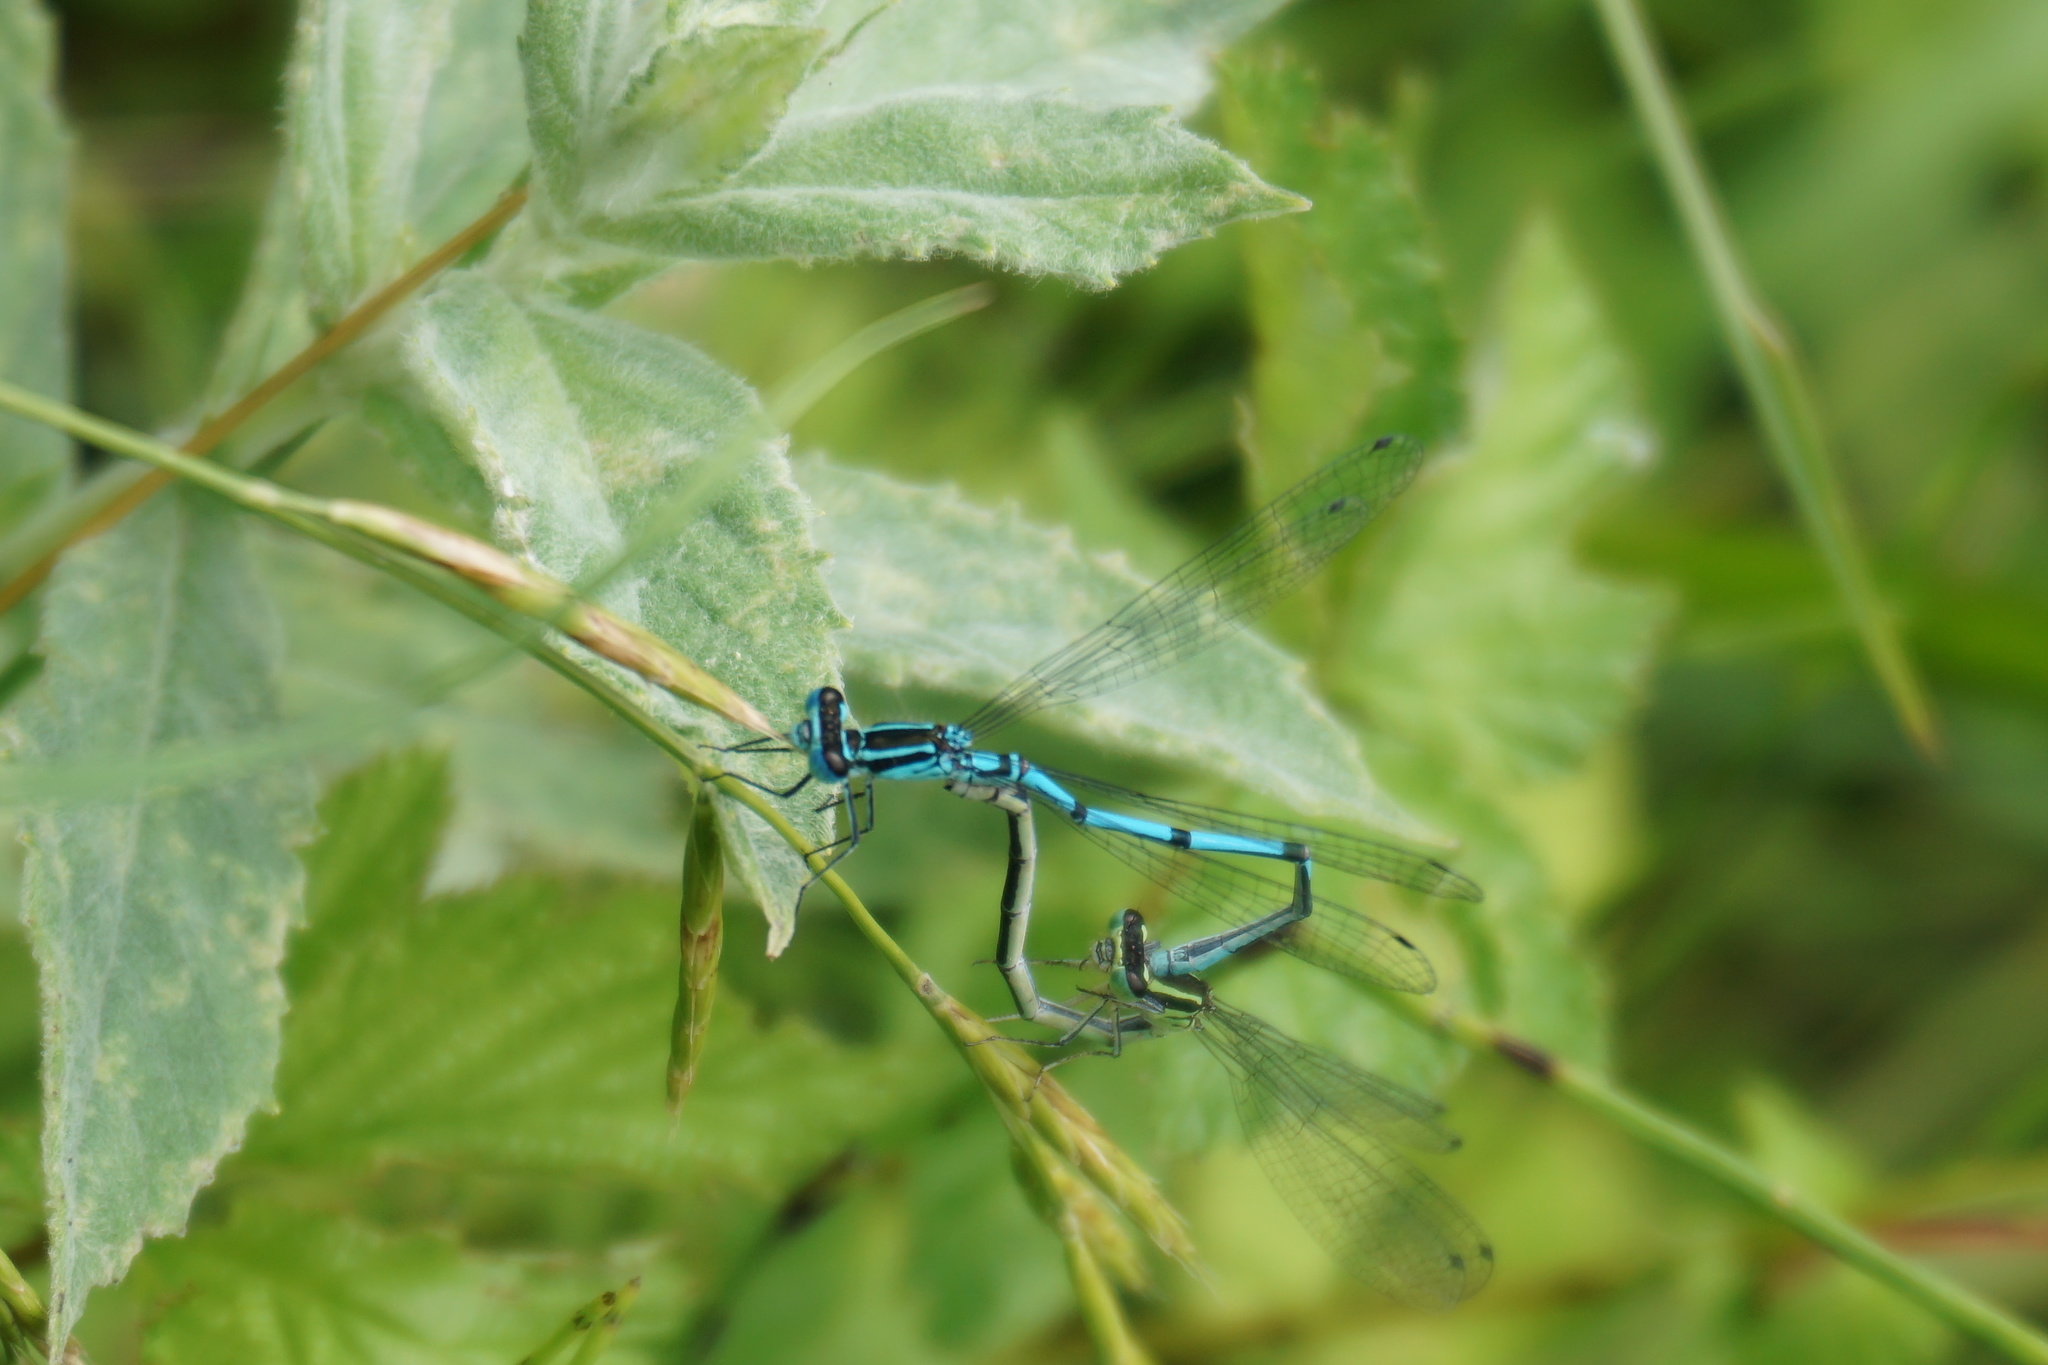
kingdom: Animalia
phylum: Arthropoda
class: Insecta
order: Odonata
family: Coenagrionidae
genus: Coenagrion
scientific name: Coenagrion puella
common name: Azure damselfly
